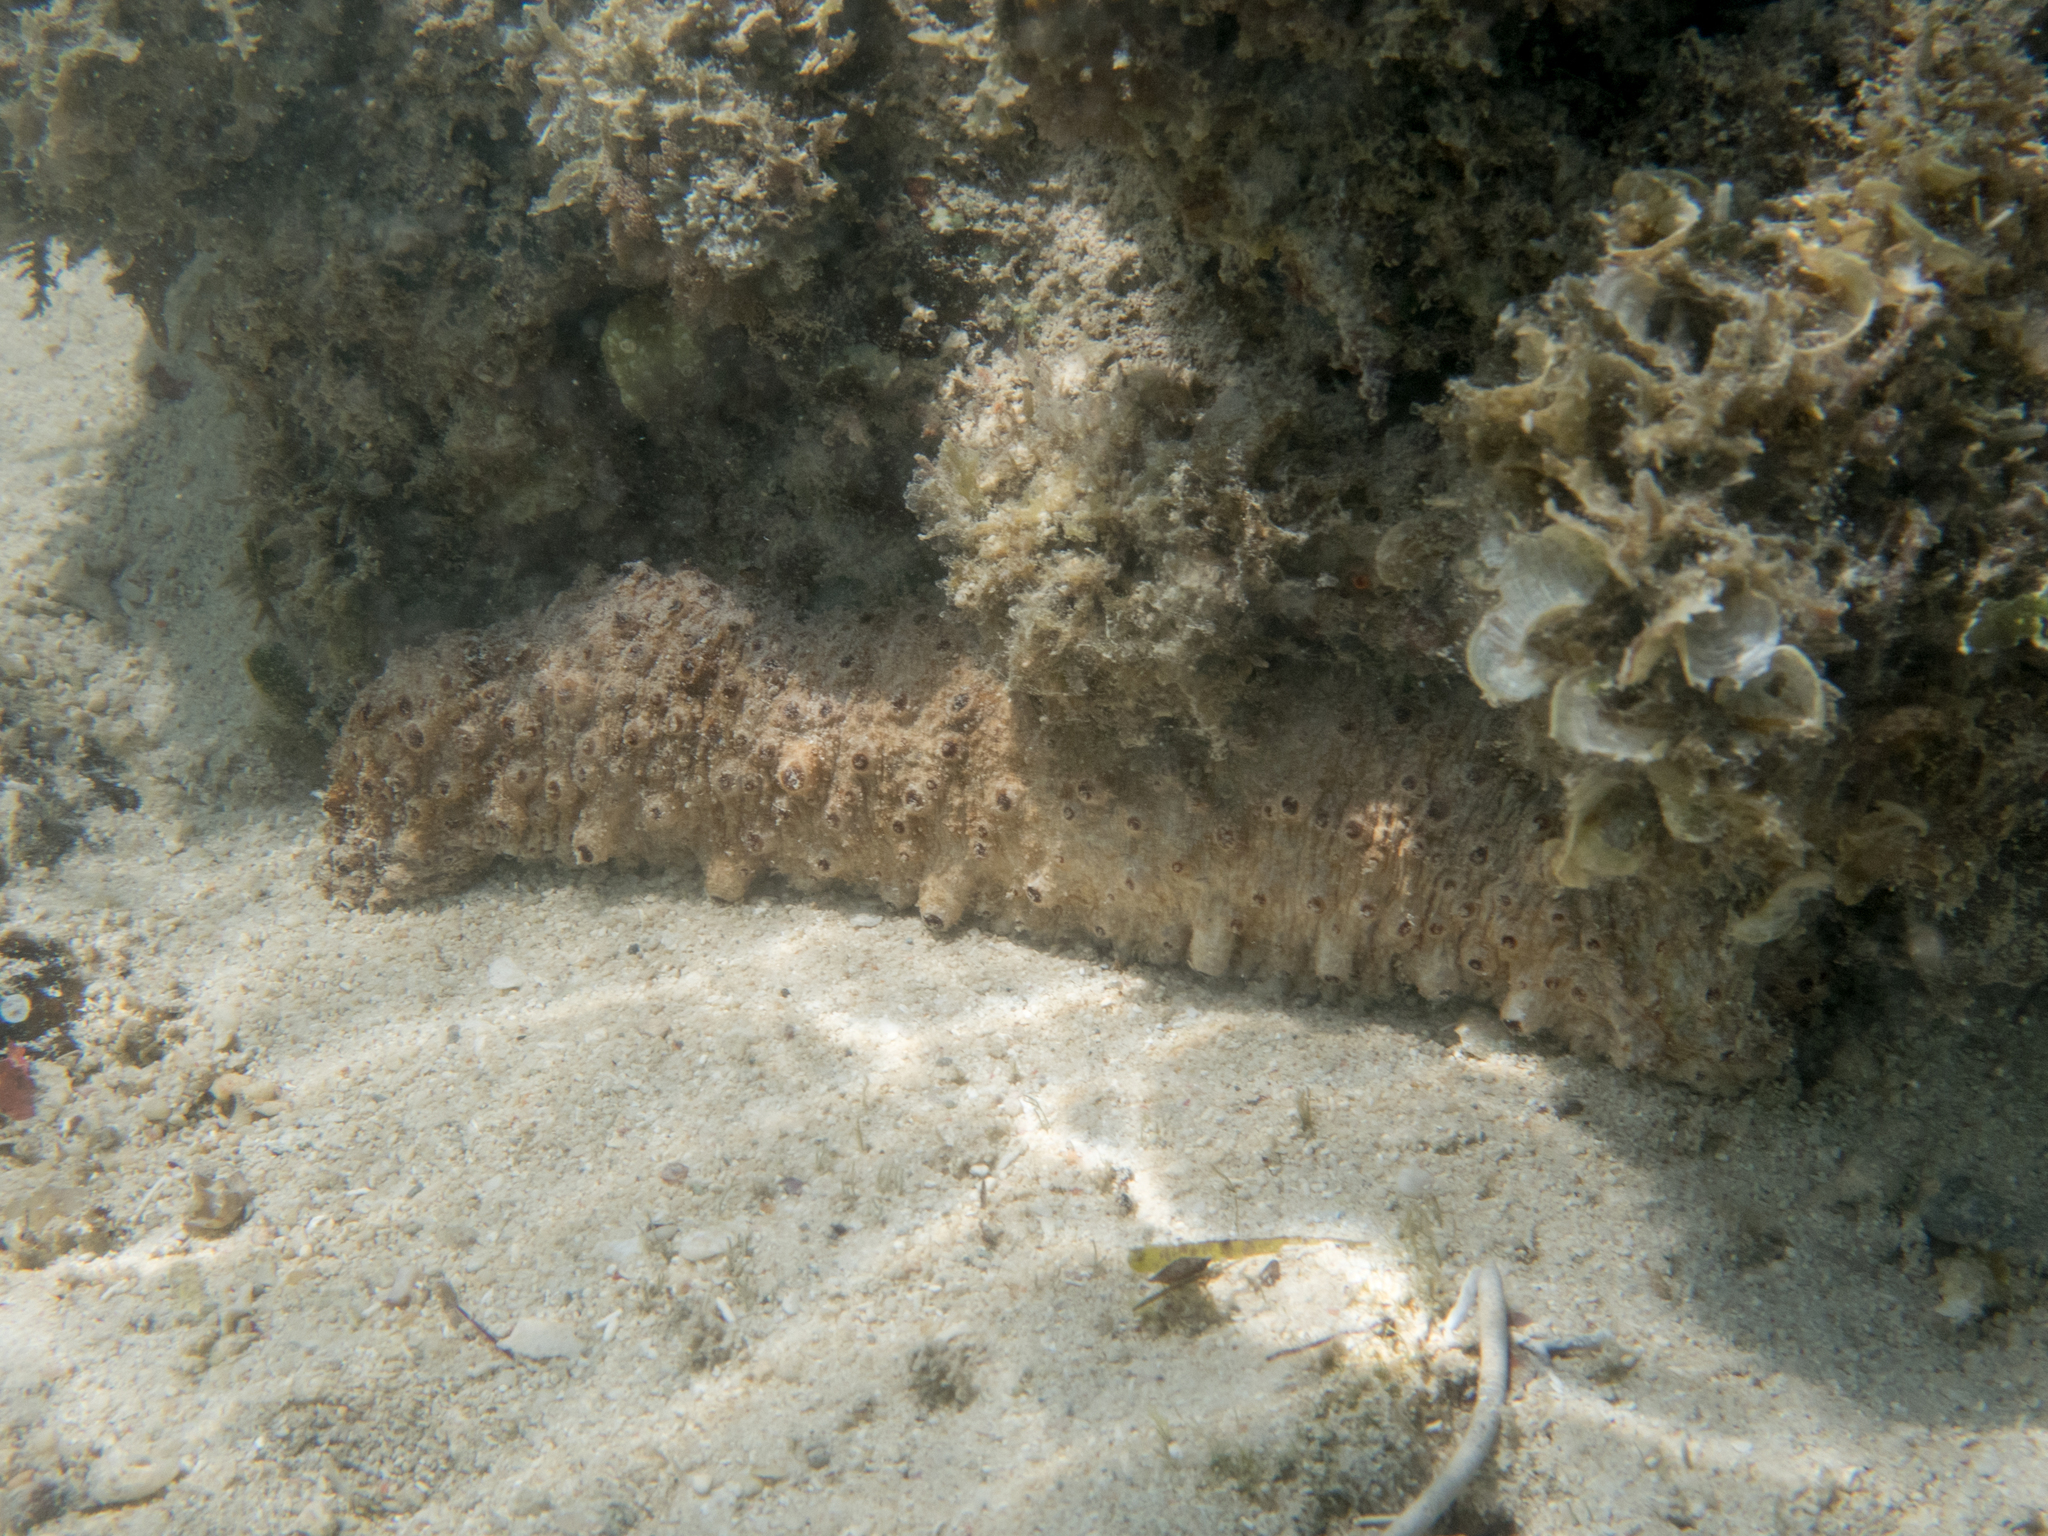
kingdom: Animalia
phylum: Echinodermata
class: Holothuroidea
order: Holothuriida
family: Holothuriidae
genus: Holothuria
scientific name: Holothuria fuscocinerea
